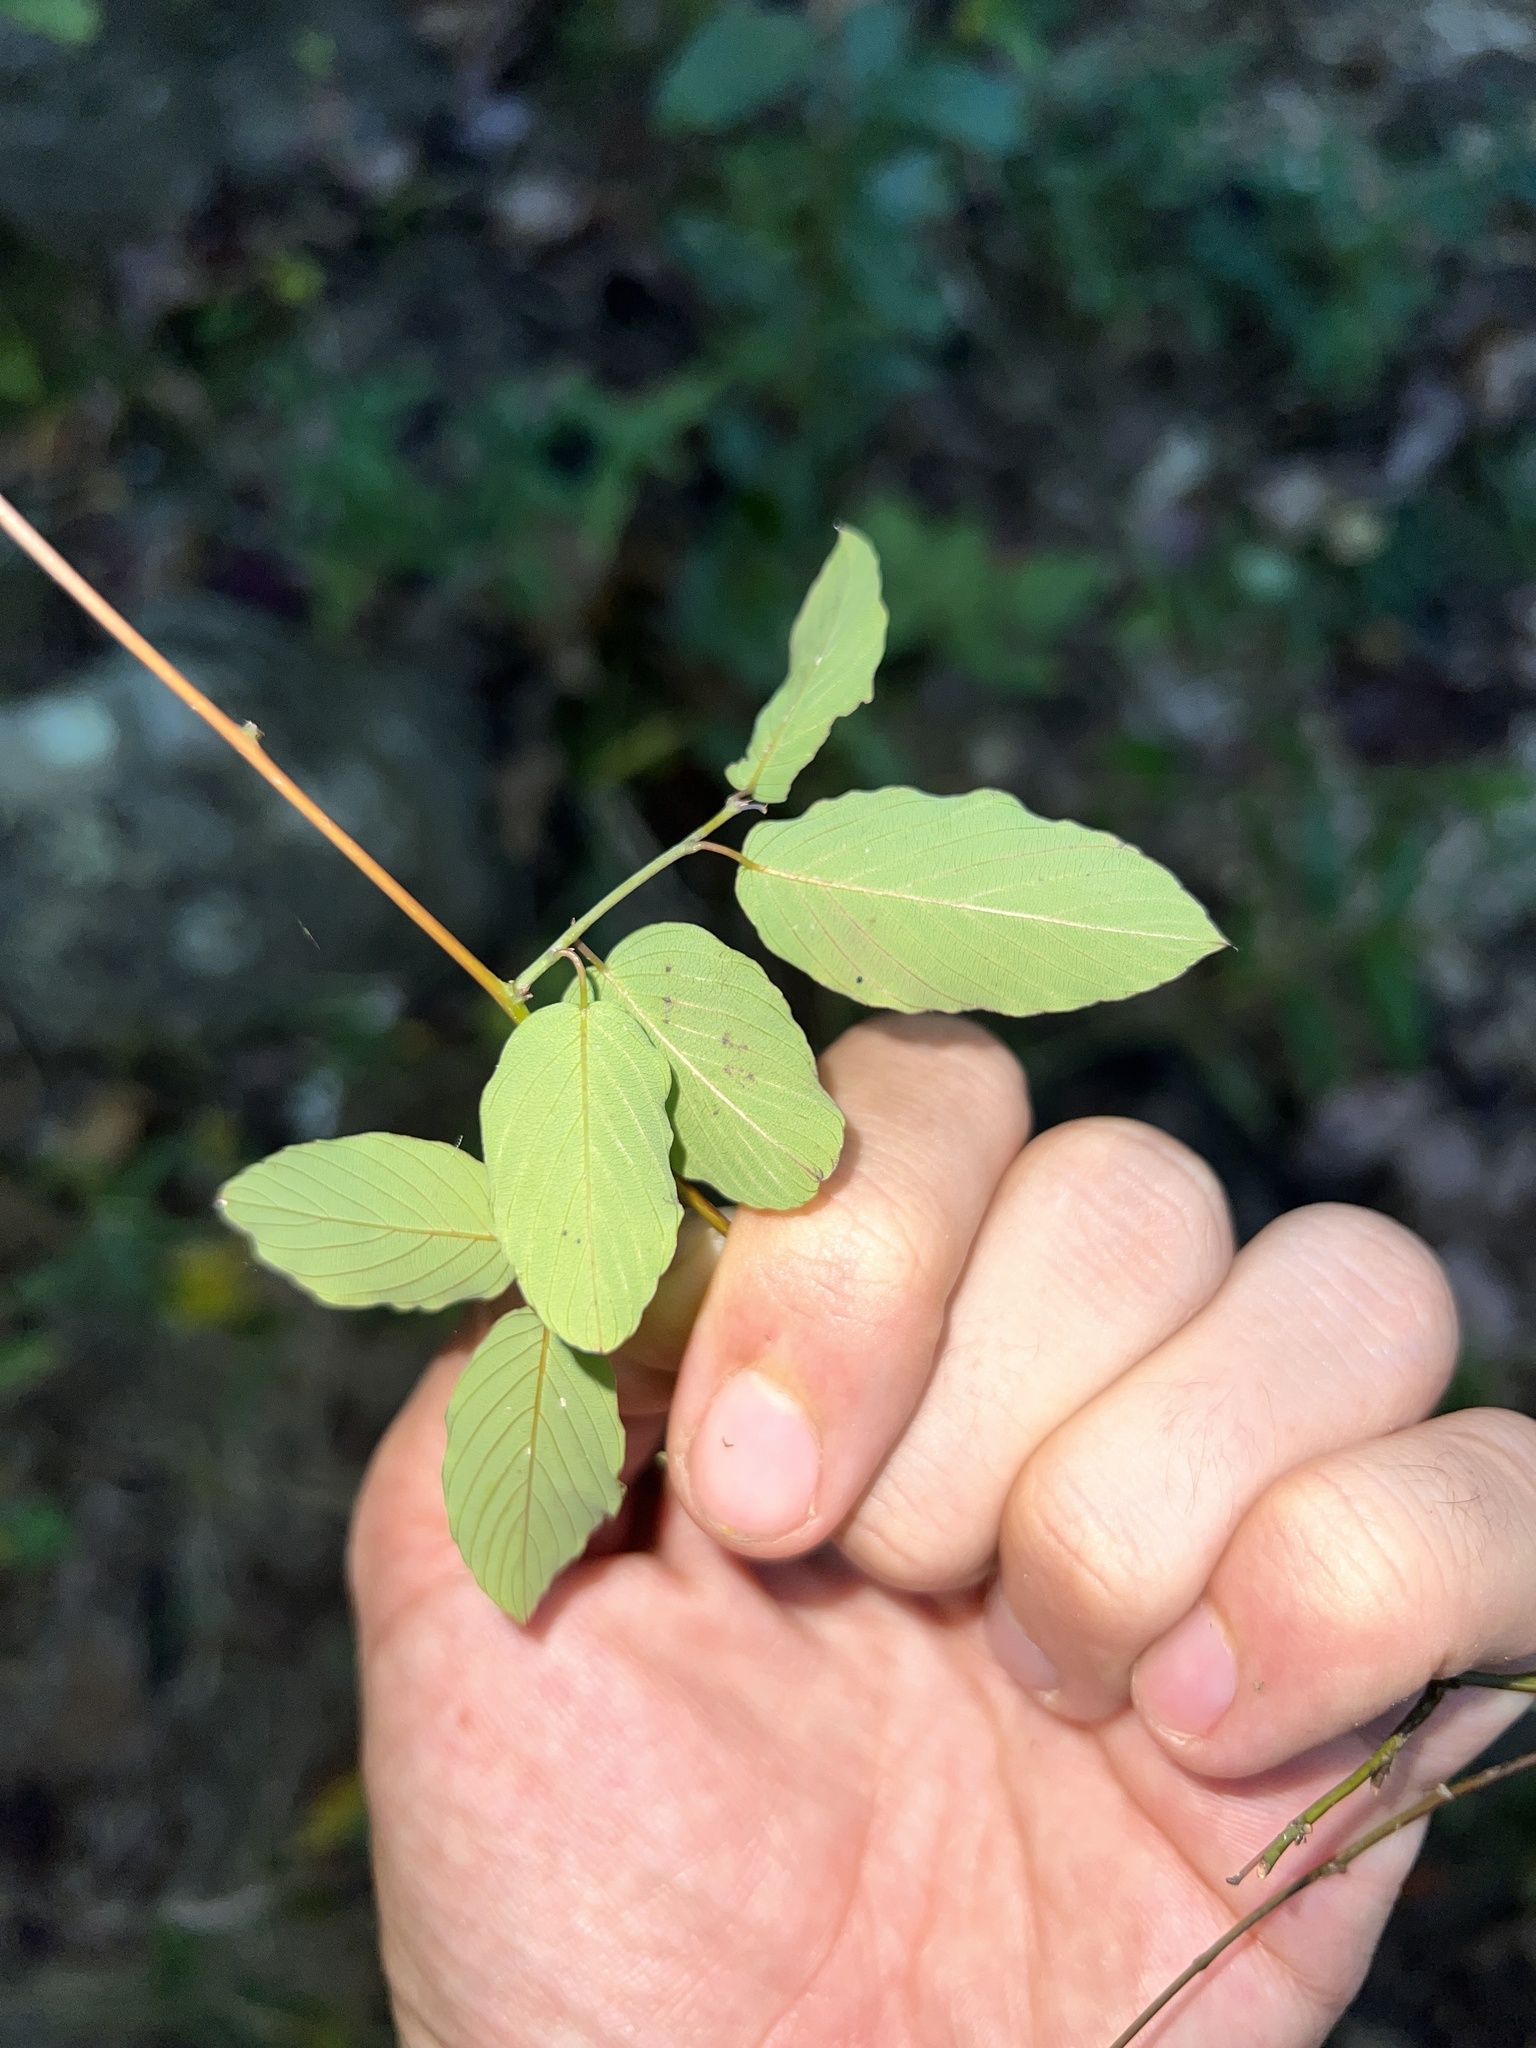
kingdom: Plantae
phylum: Tracheophyta
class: Magnoliopsida
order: Rosales
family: Rhamnaceae
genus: Berchemia
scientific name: Berchemia scandens
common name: Supplejack
